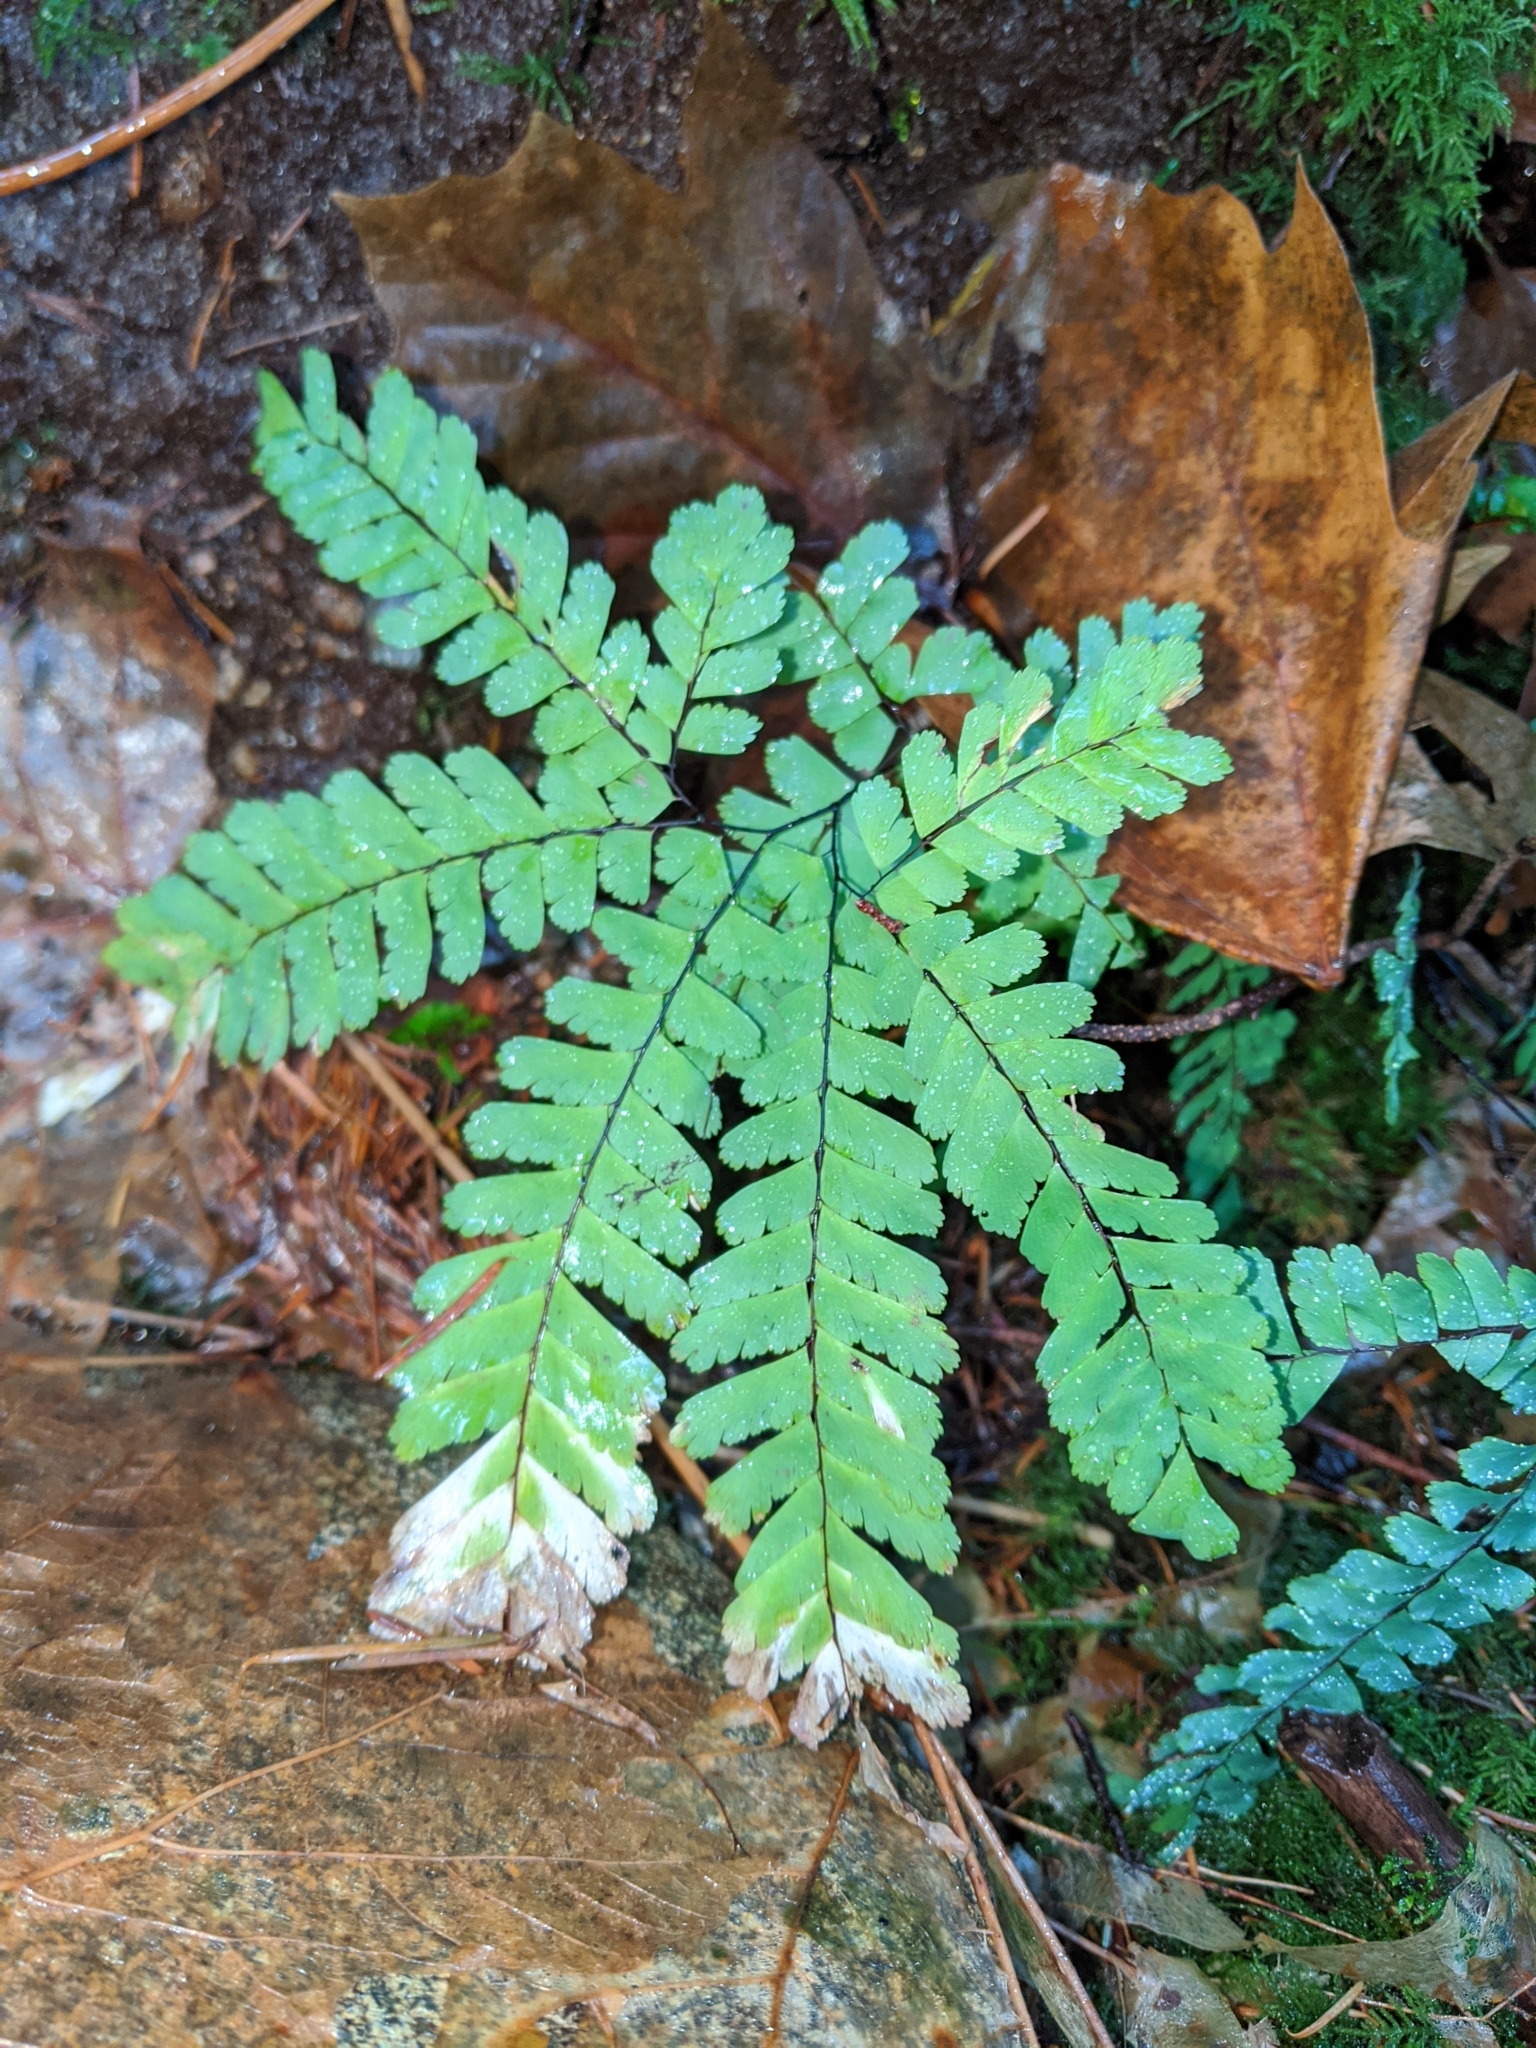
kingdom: Plantae
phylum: Tracheophyta
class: Polypodiopsida
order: Polypodiales
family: Pteridaceae
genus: Adiantum
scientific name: Adiantum aleuticum
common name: Aleutian maidenhair fern
